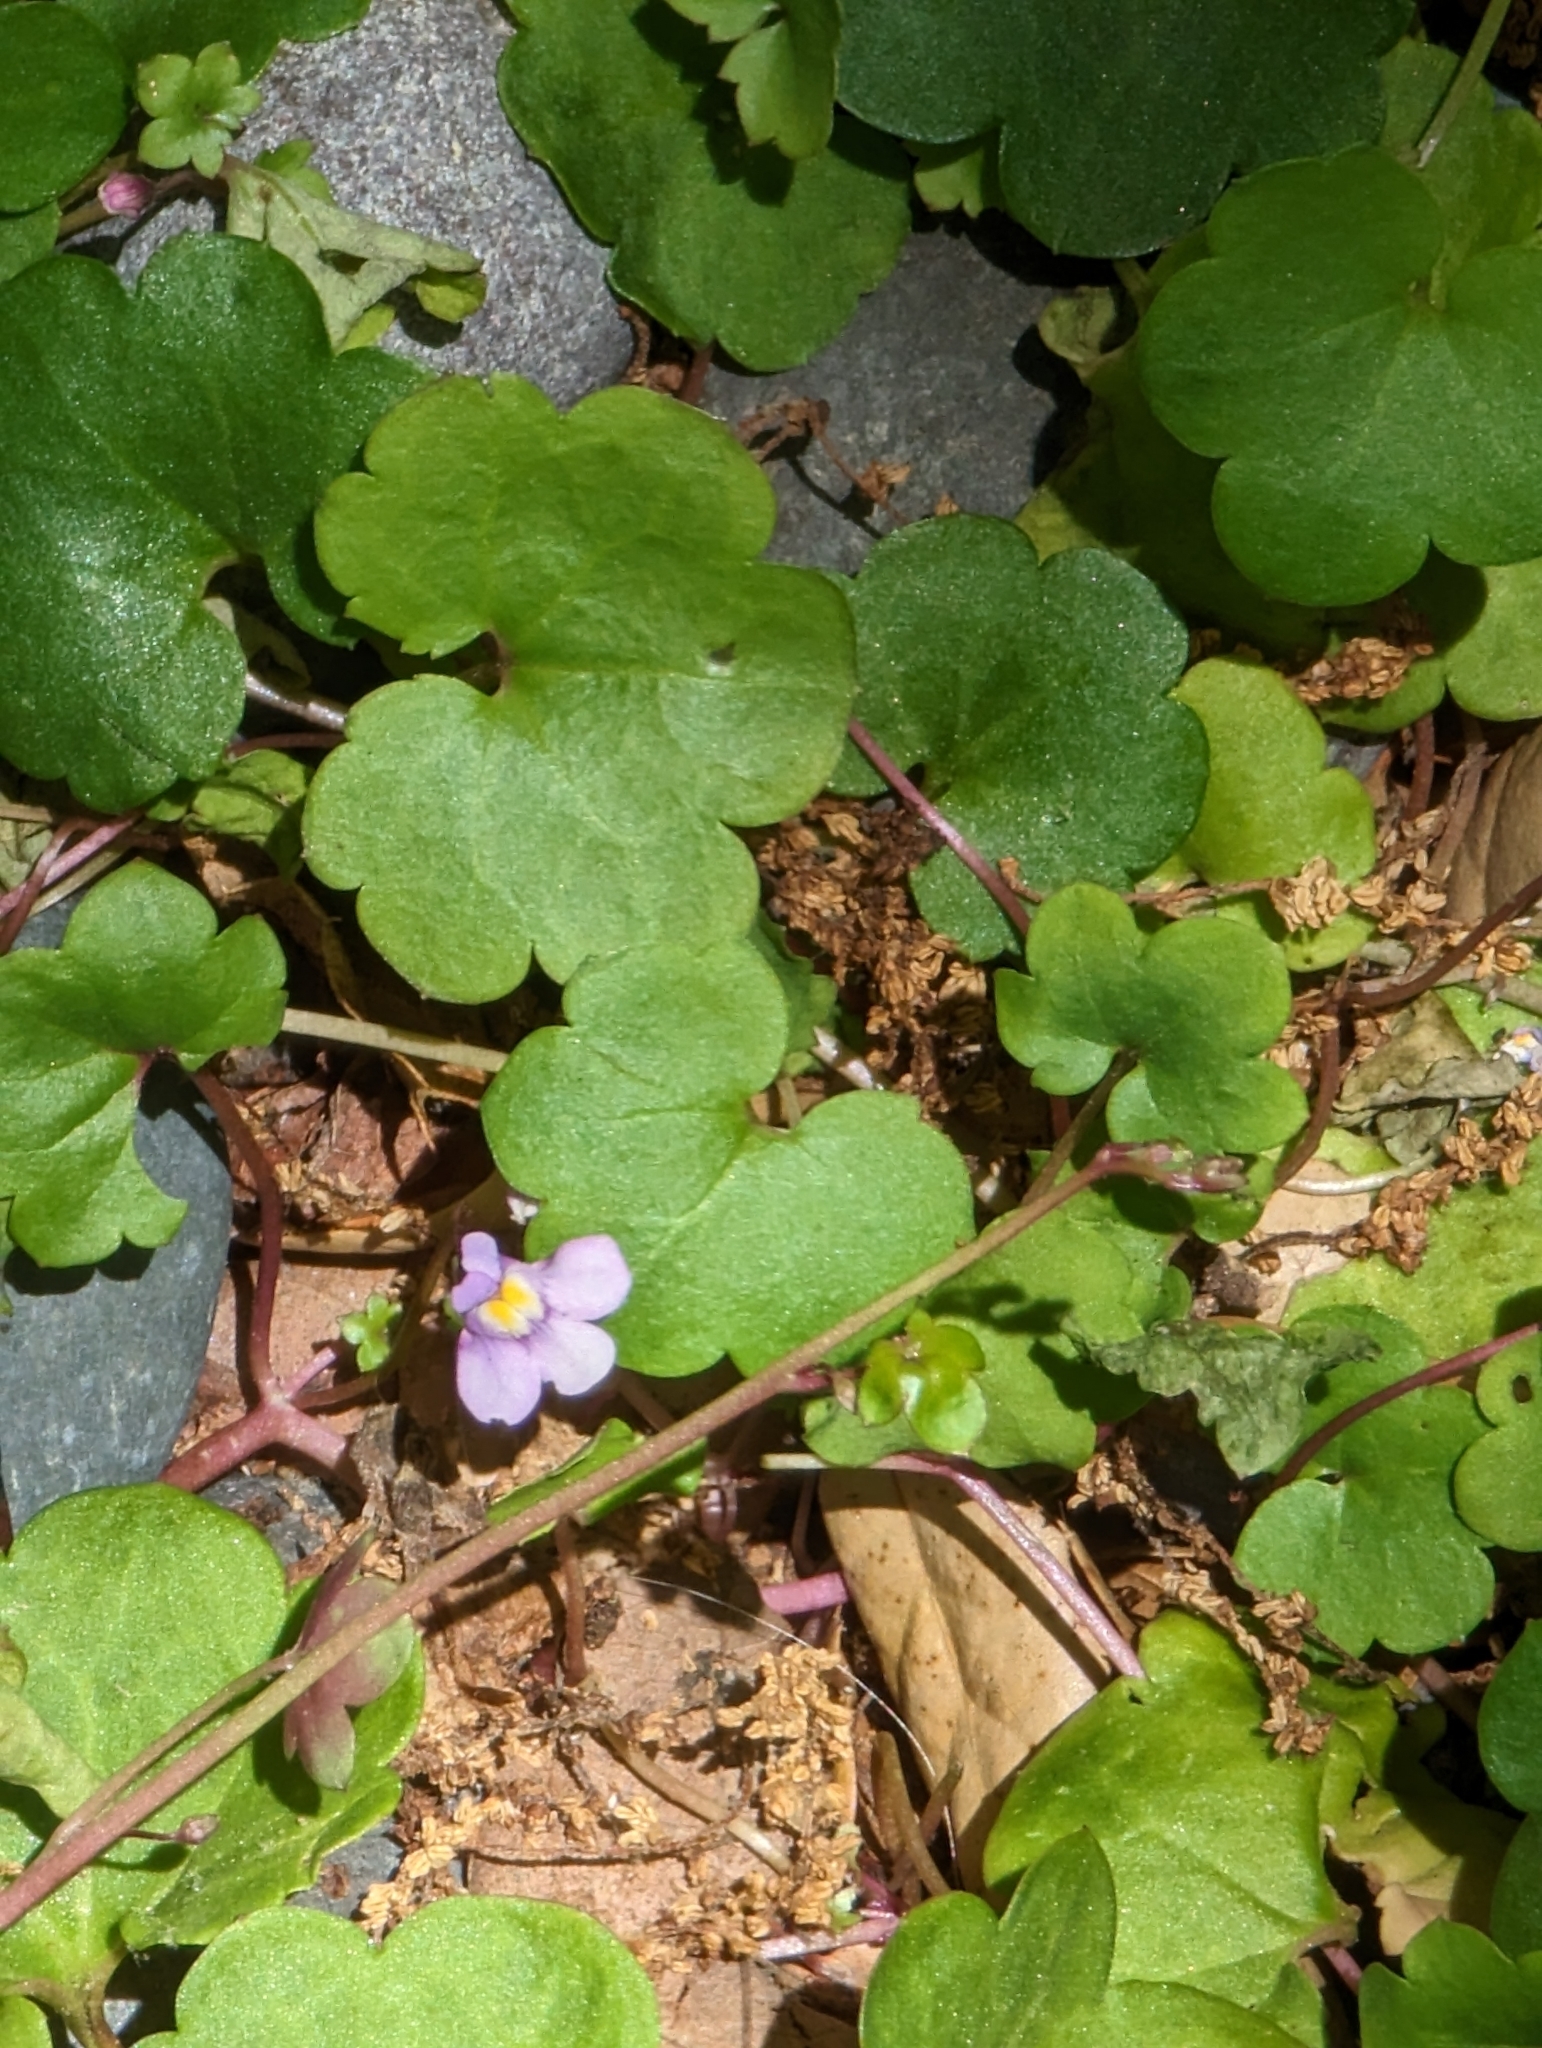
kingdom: Plantae
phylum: Tracheophyta
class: Magnoliopsida
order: Lamiales
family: Plantaginaceae
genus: Cymbalaria
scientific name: Cymbalaria muralis
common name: Ivy-leaved toadflax
